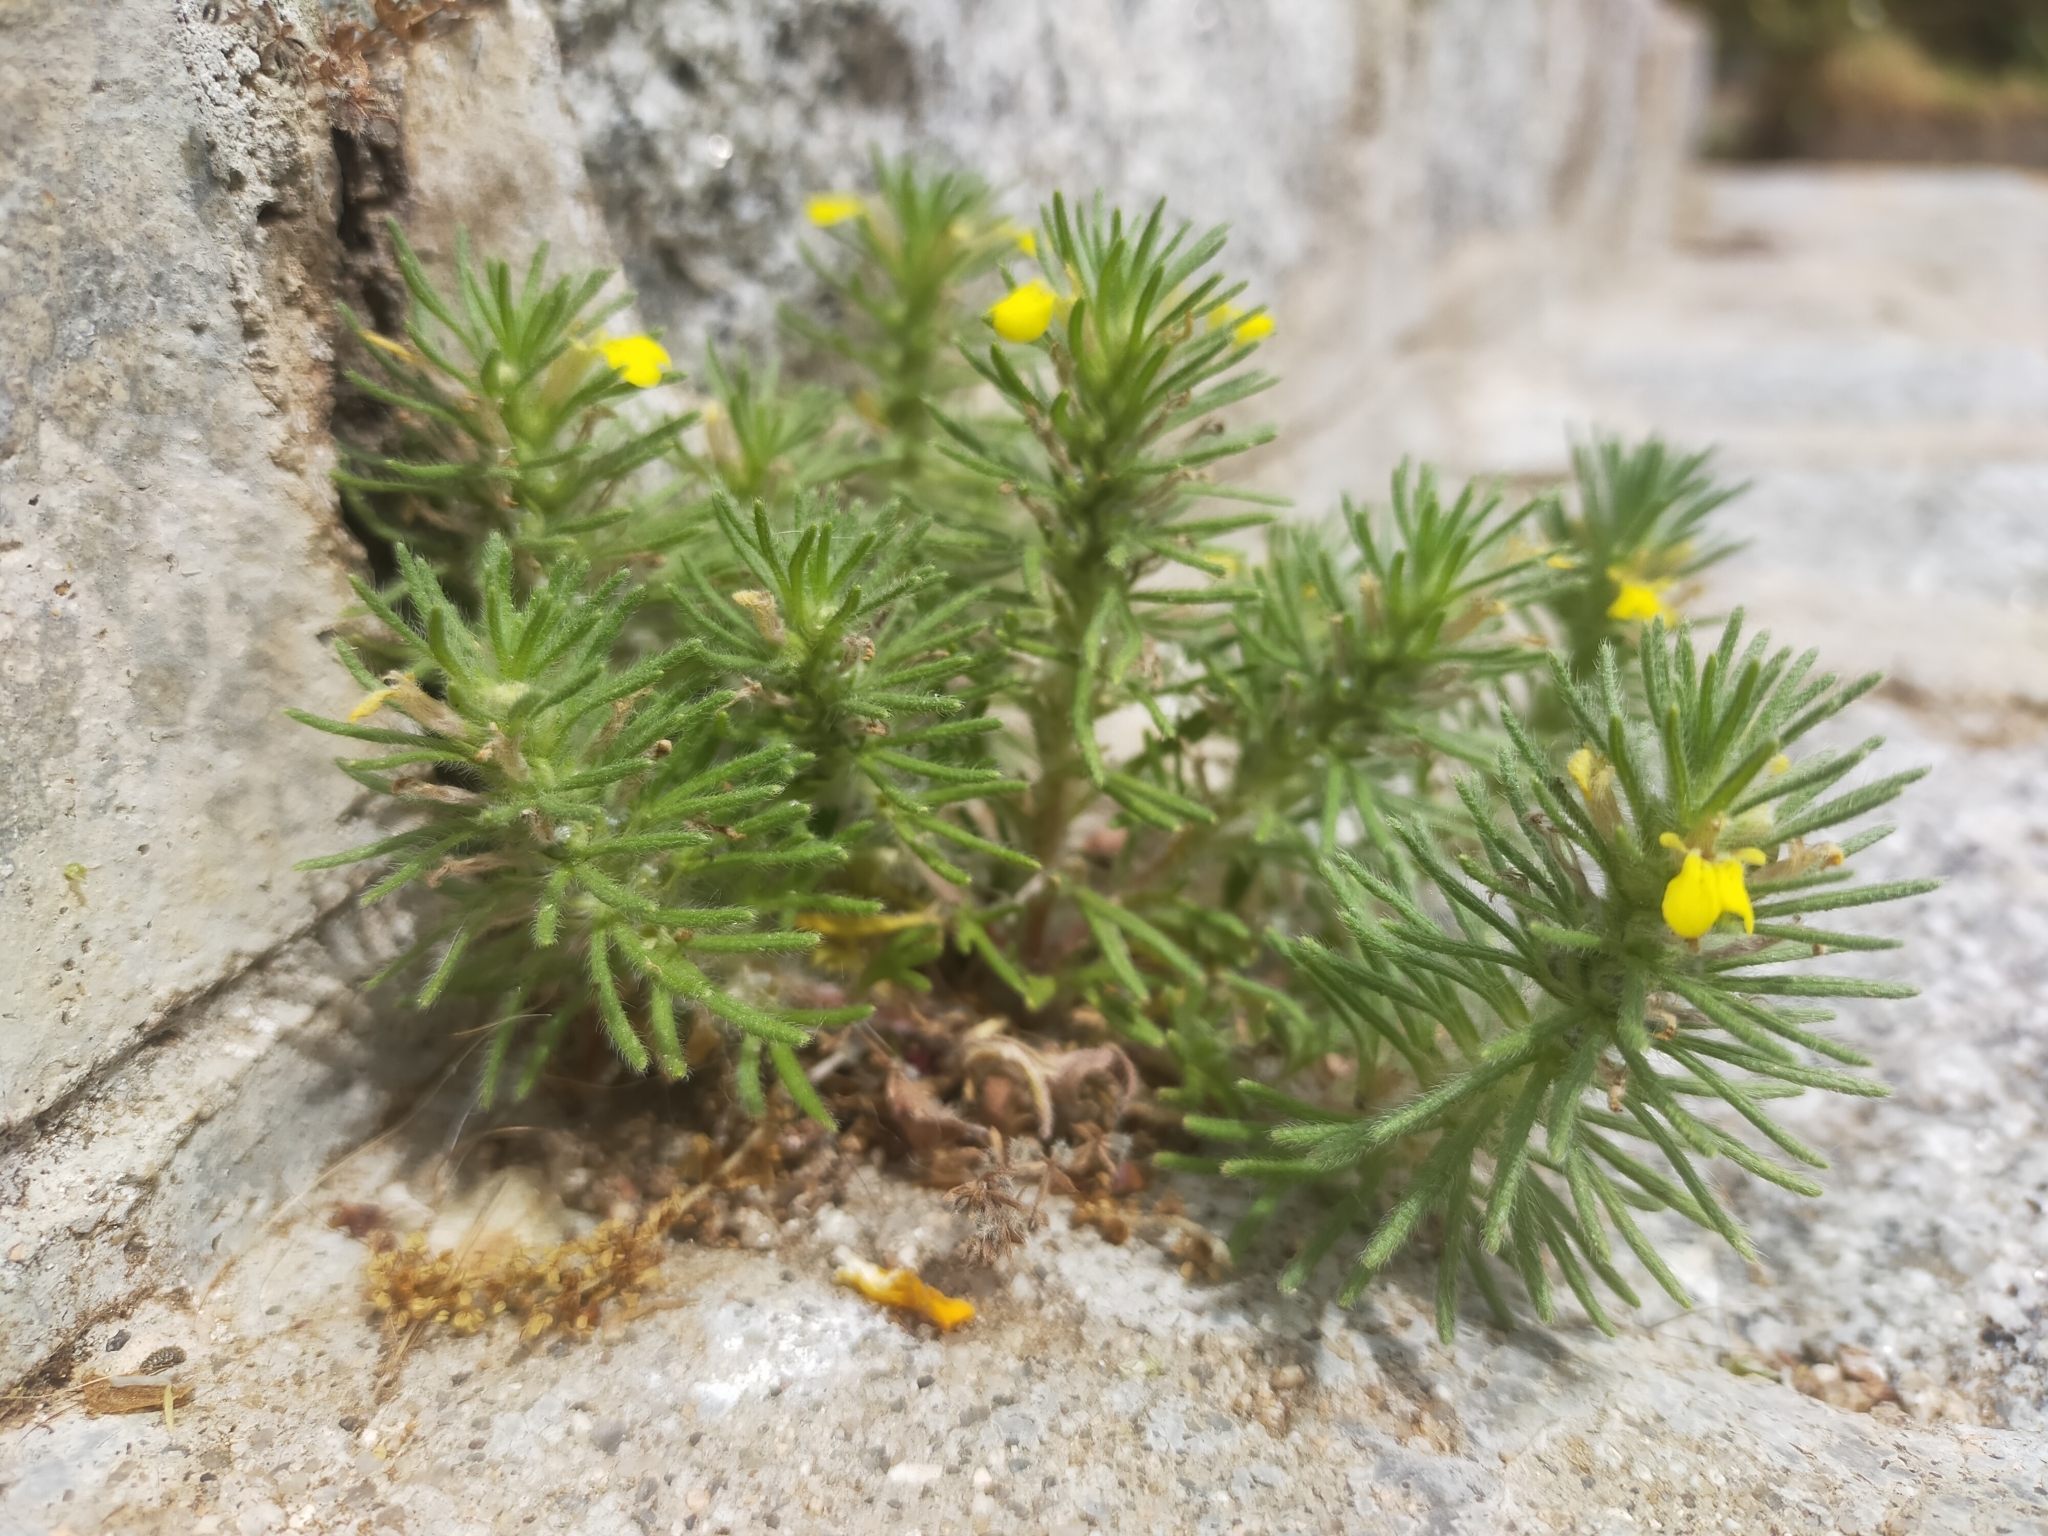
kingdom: Plantae
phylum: Tracheophyta
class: Magnoliopsida
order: Lamiales
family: Lamiaceae
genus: Ajuga
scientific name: Ajuga chamaepitys
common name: Ground-pine
